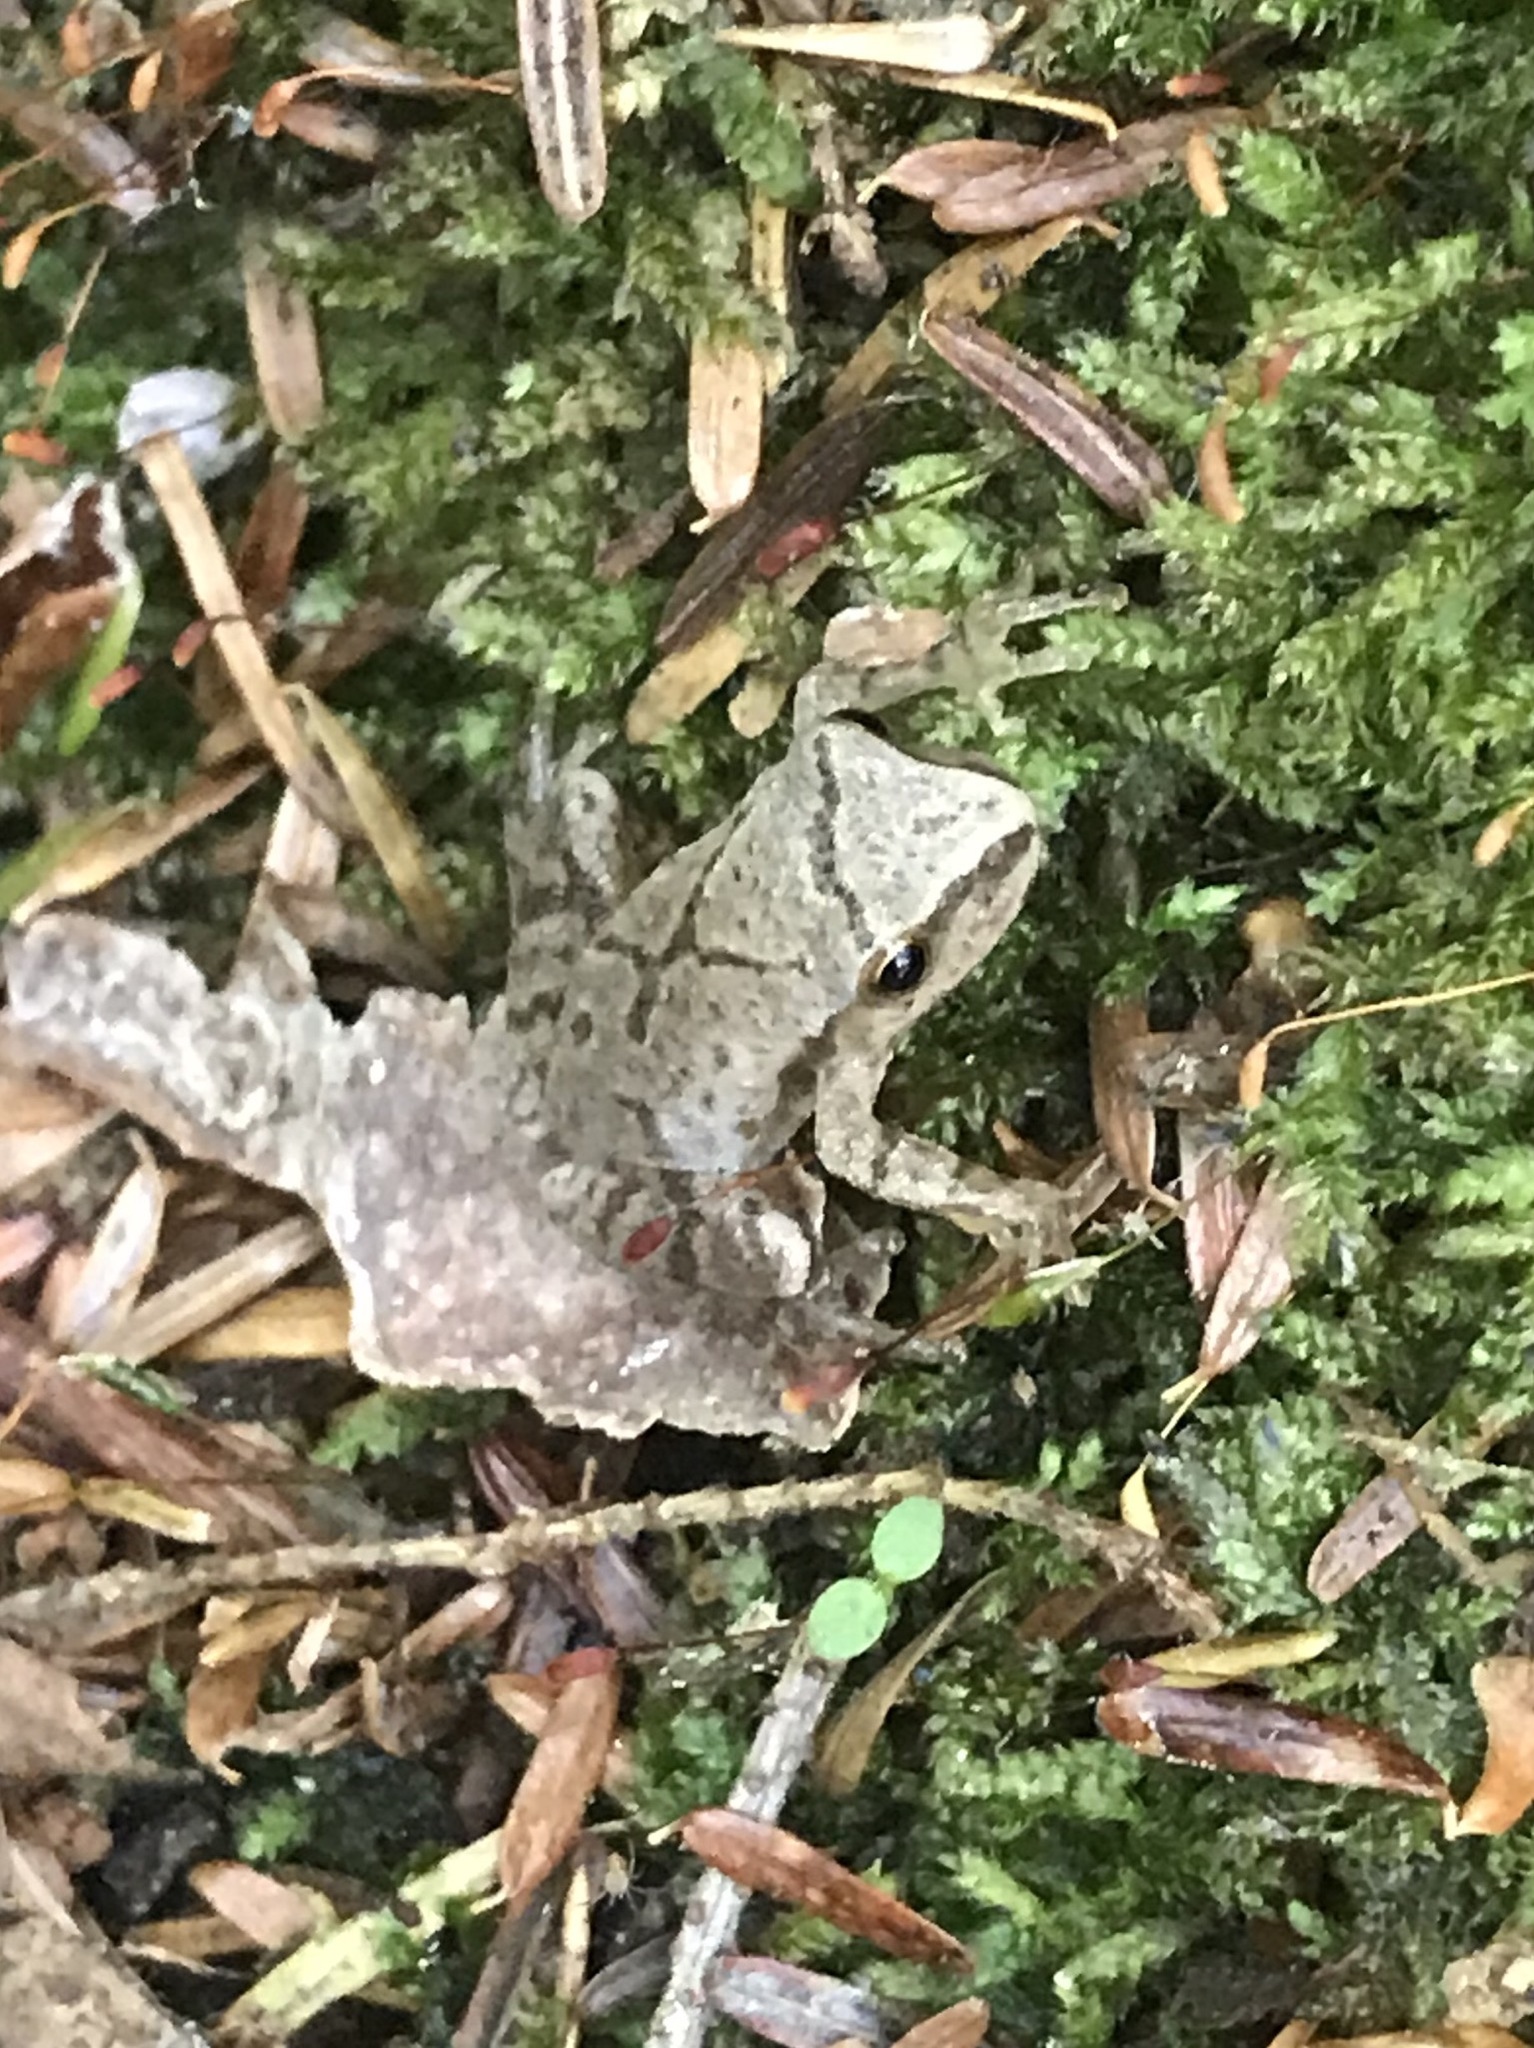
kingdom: Animalia
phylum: Chordata
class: Amphibia
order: Anura
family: Hylidae
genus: Pseudacris
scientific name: Pseudacris crucifer
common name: Spring peeper
